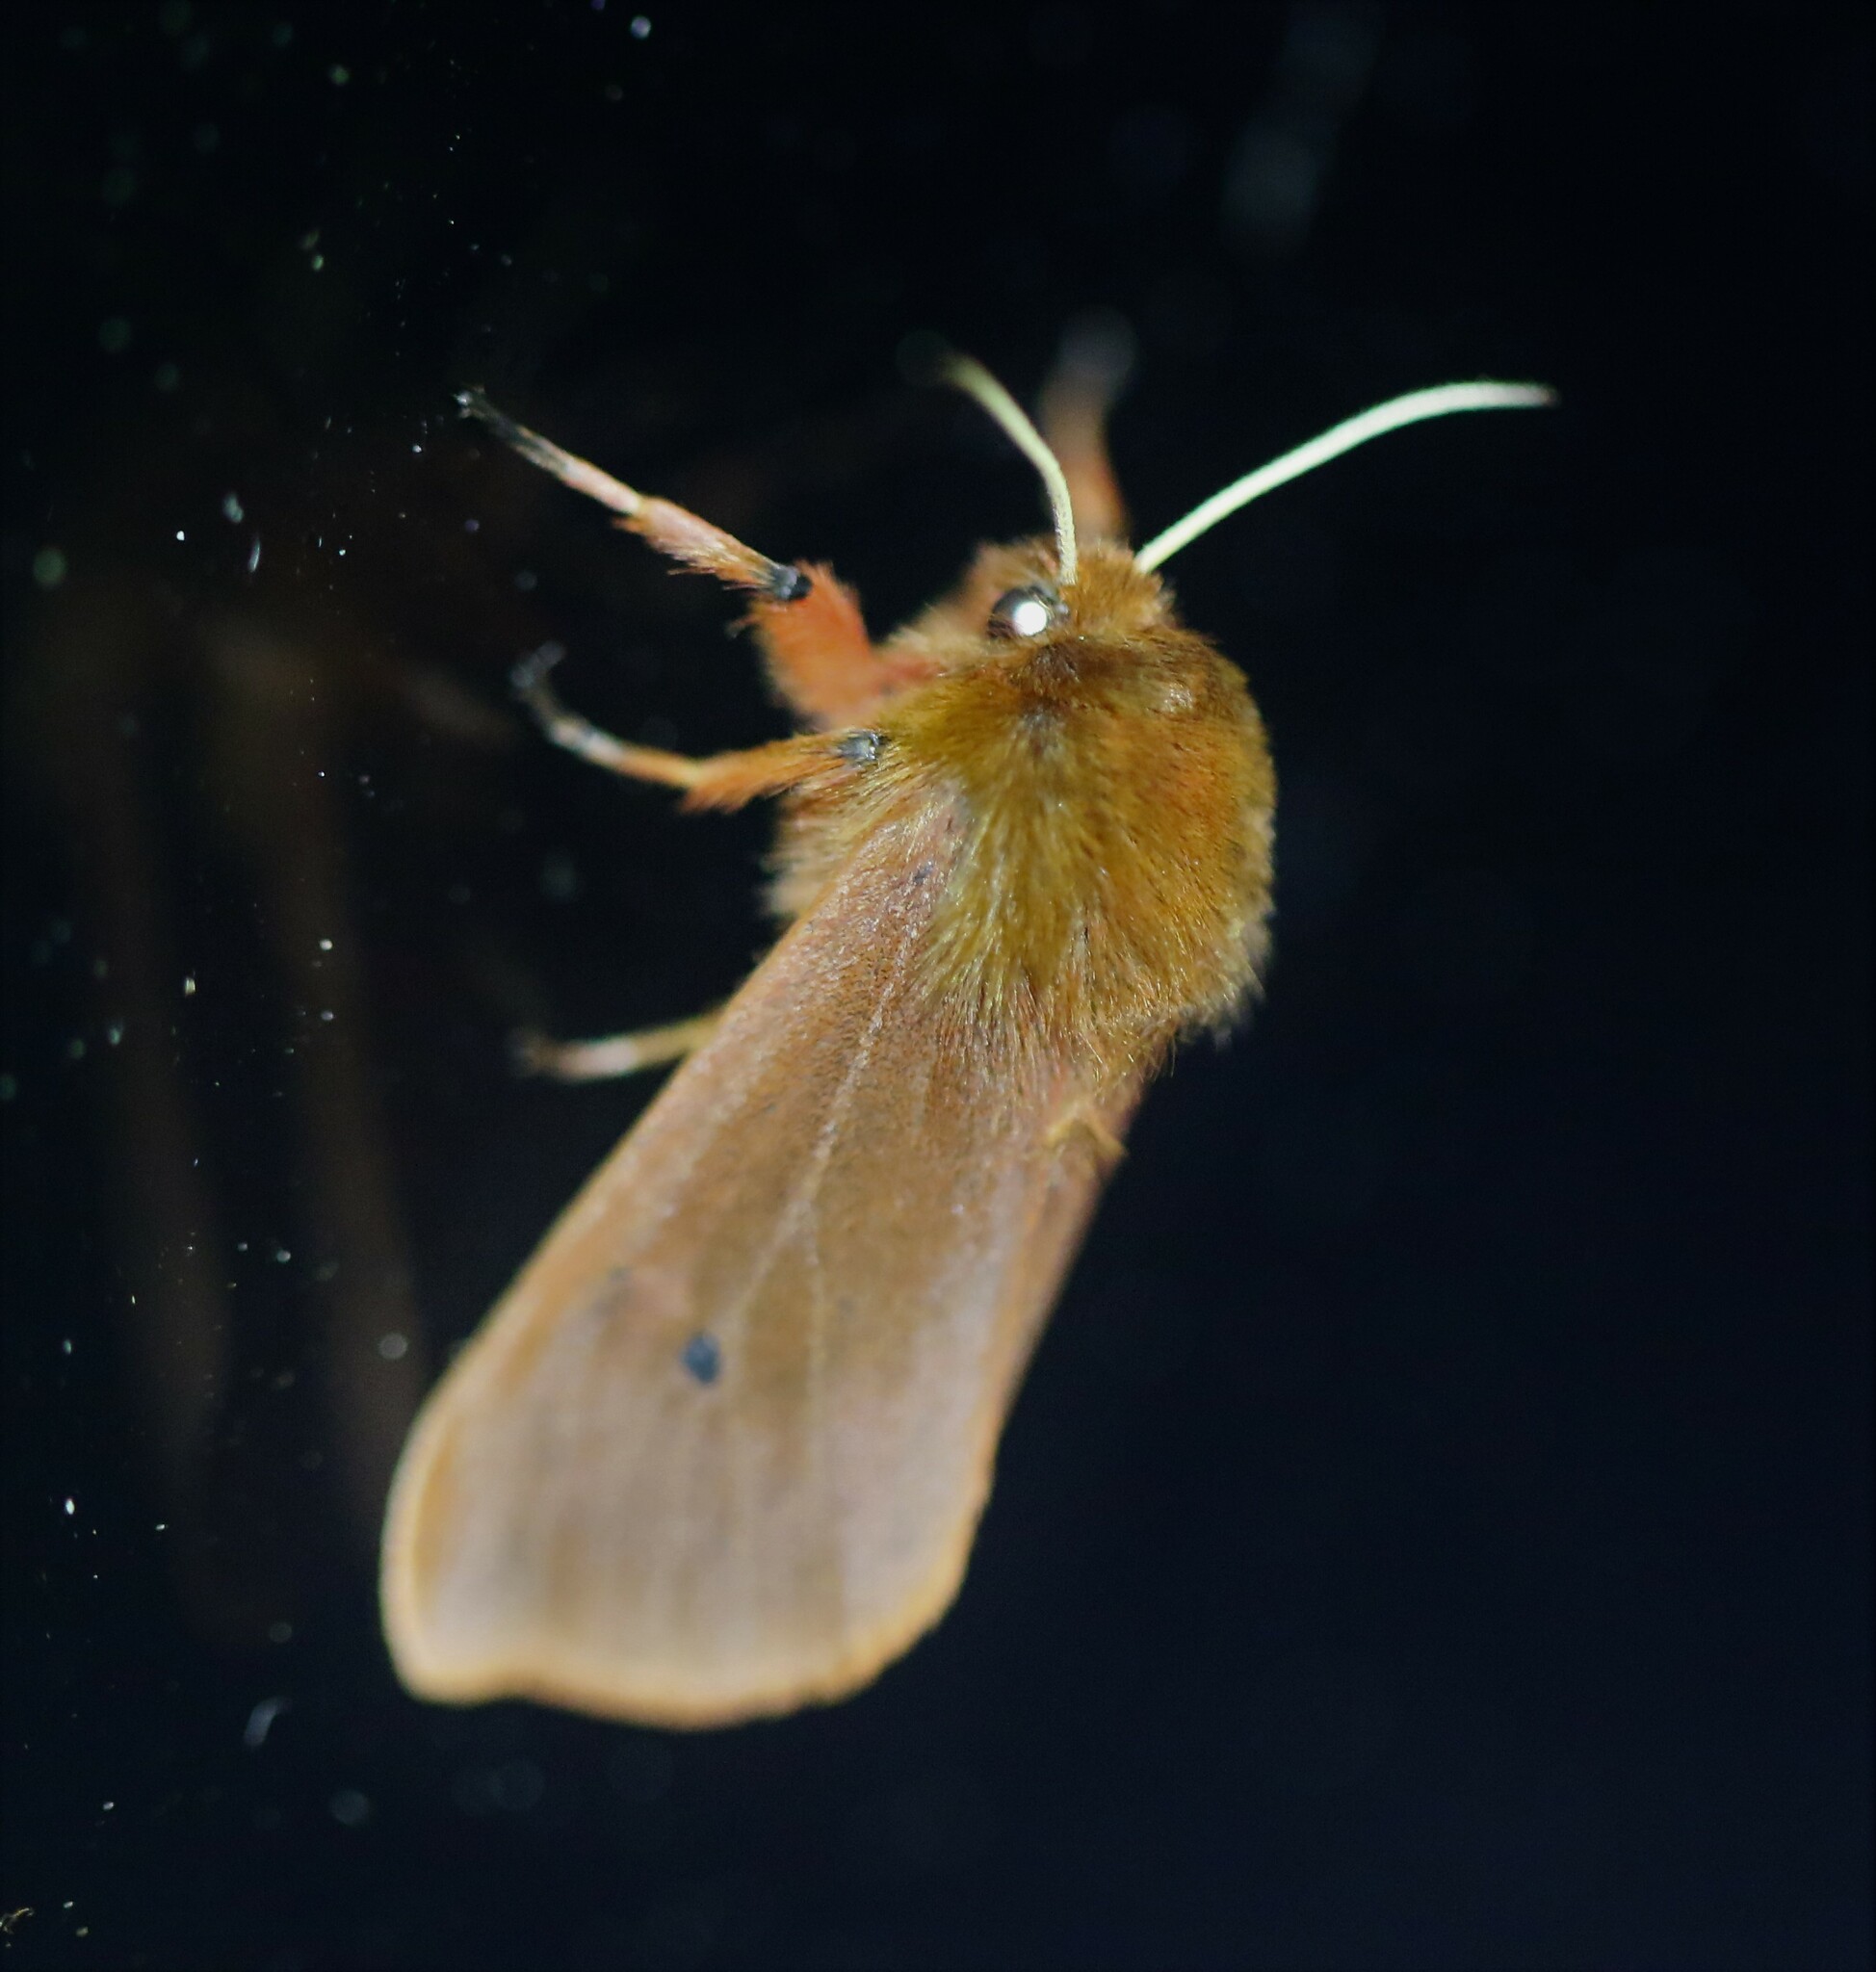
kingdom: Animalia
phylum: Arthropoda
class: Insecta
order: Lepidoptera
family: Erebidae
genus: Phragmatobia
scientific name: Phragmatobia fuliginosa
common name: Ruby tiger
